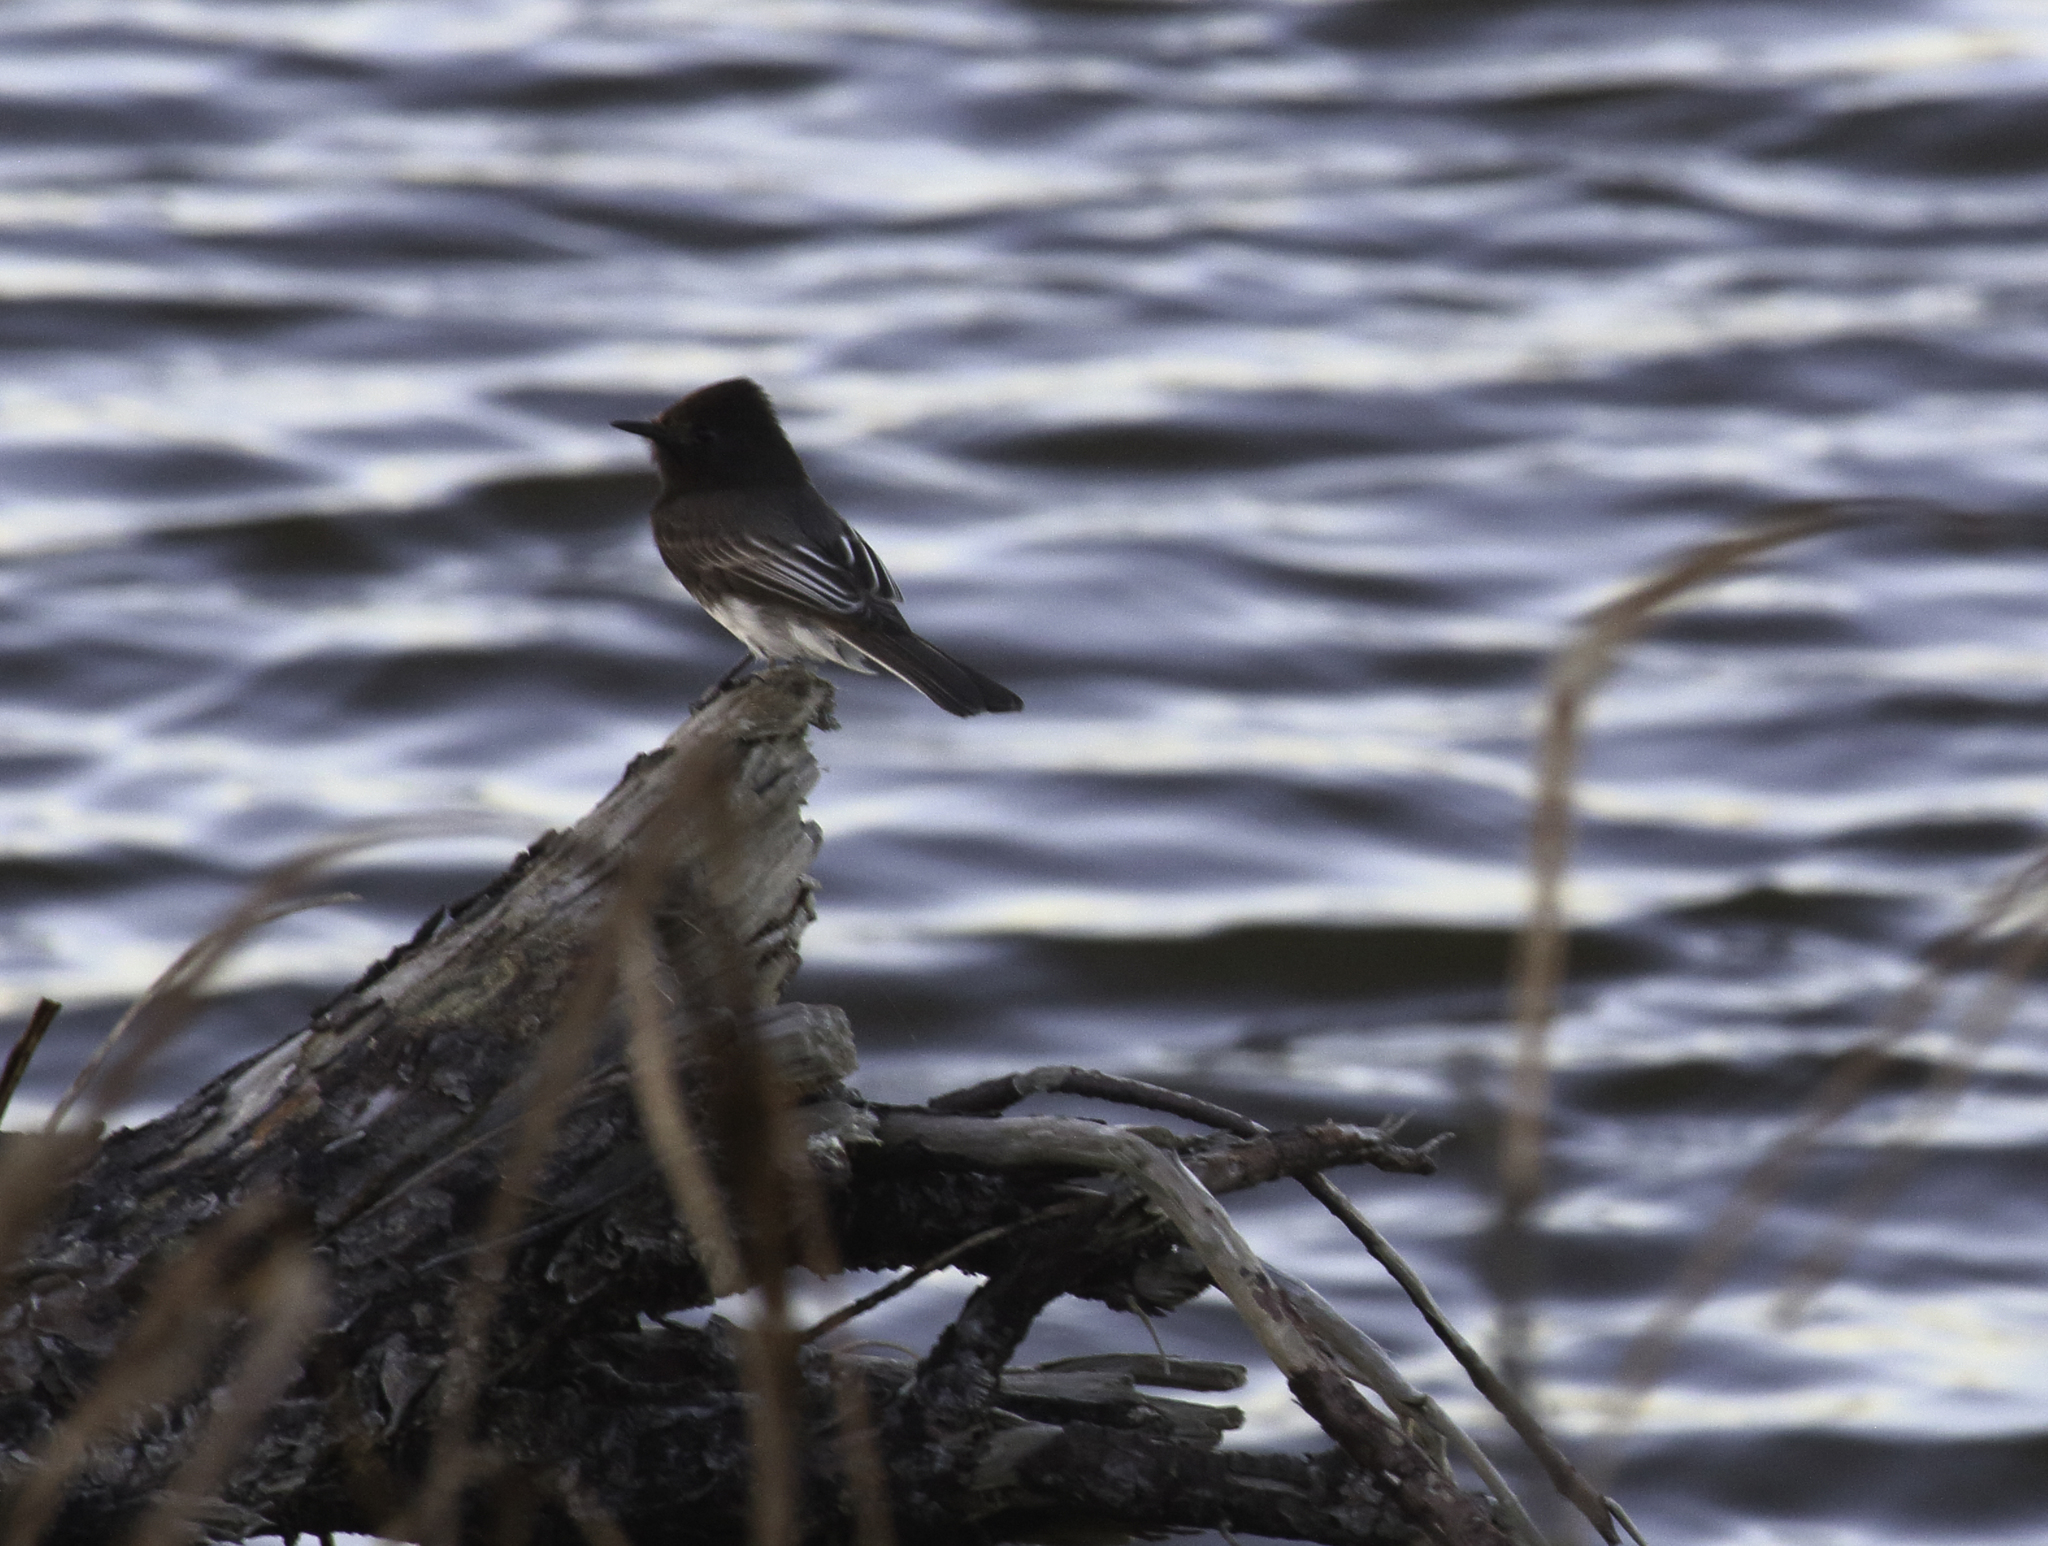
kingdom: Animalia
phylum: Chordata
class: Aves
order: Passeriformes
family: Tyrannidae
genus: Sayornis
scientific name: Sayornis nigricans
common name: Black phoebe
